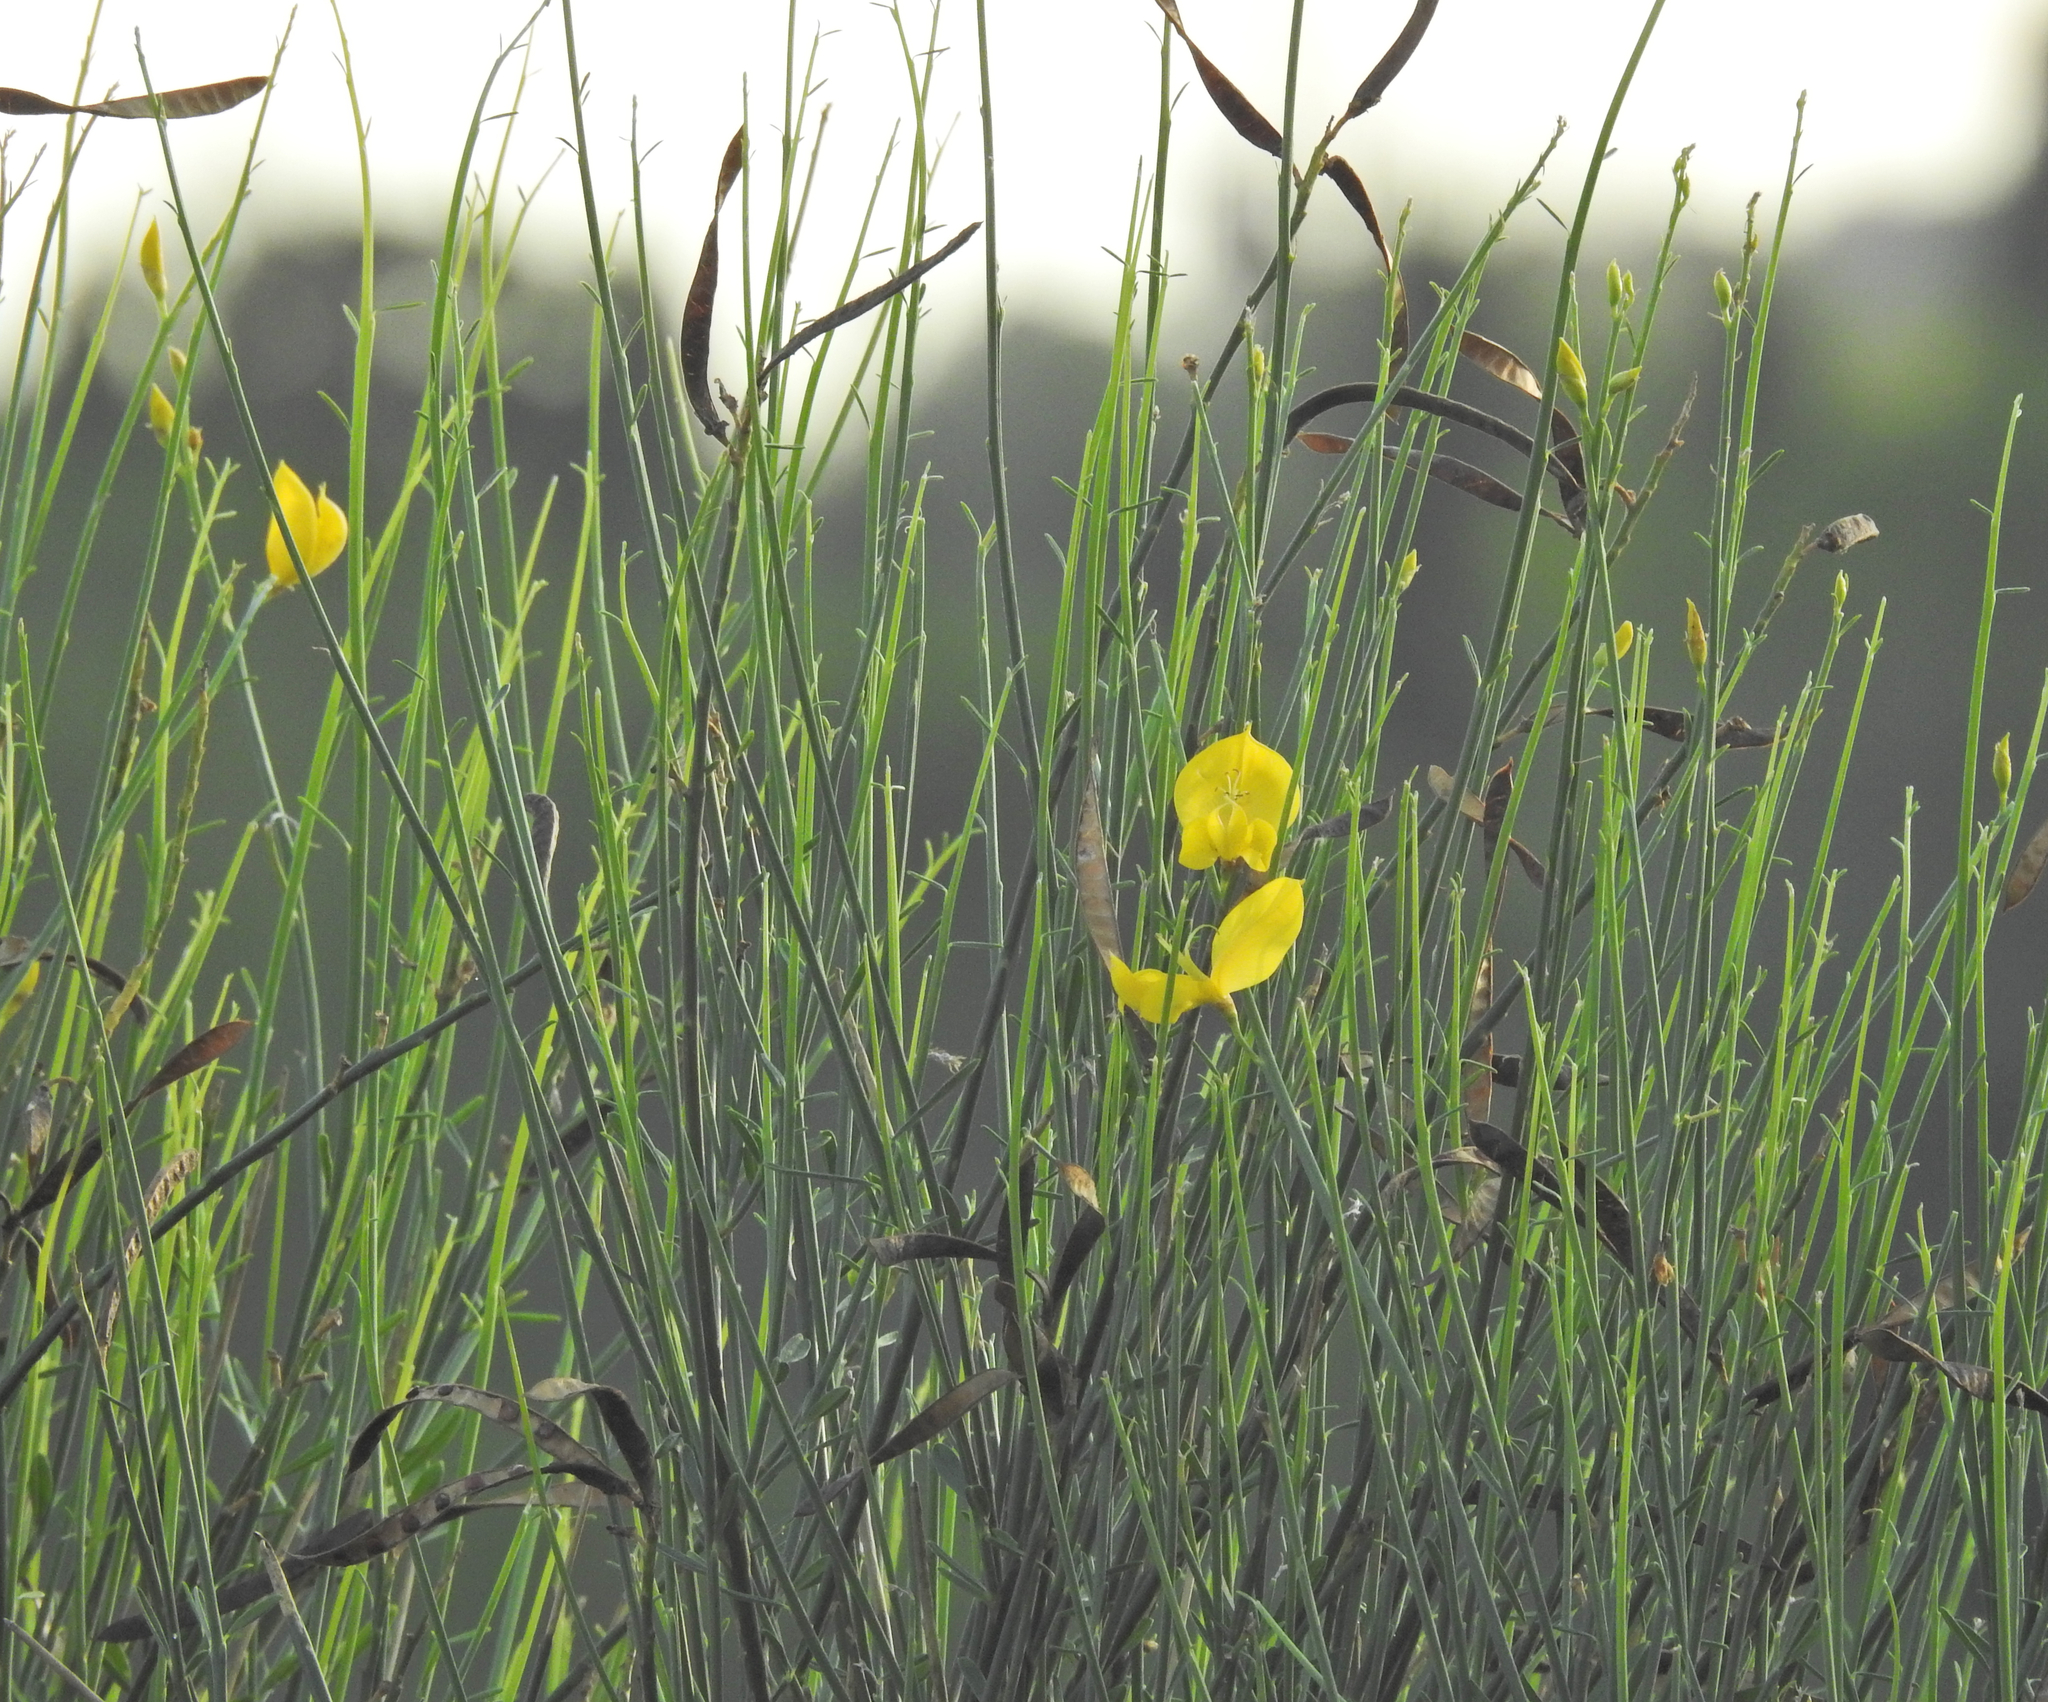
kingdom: Plantae
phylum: Tracheophyta
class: Magnoliopsida
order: Fabales
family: Fabaceae
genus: Spartium
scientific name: Spartium junceum
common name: Spanish broom
